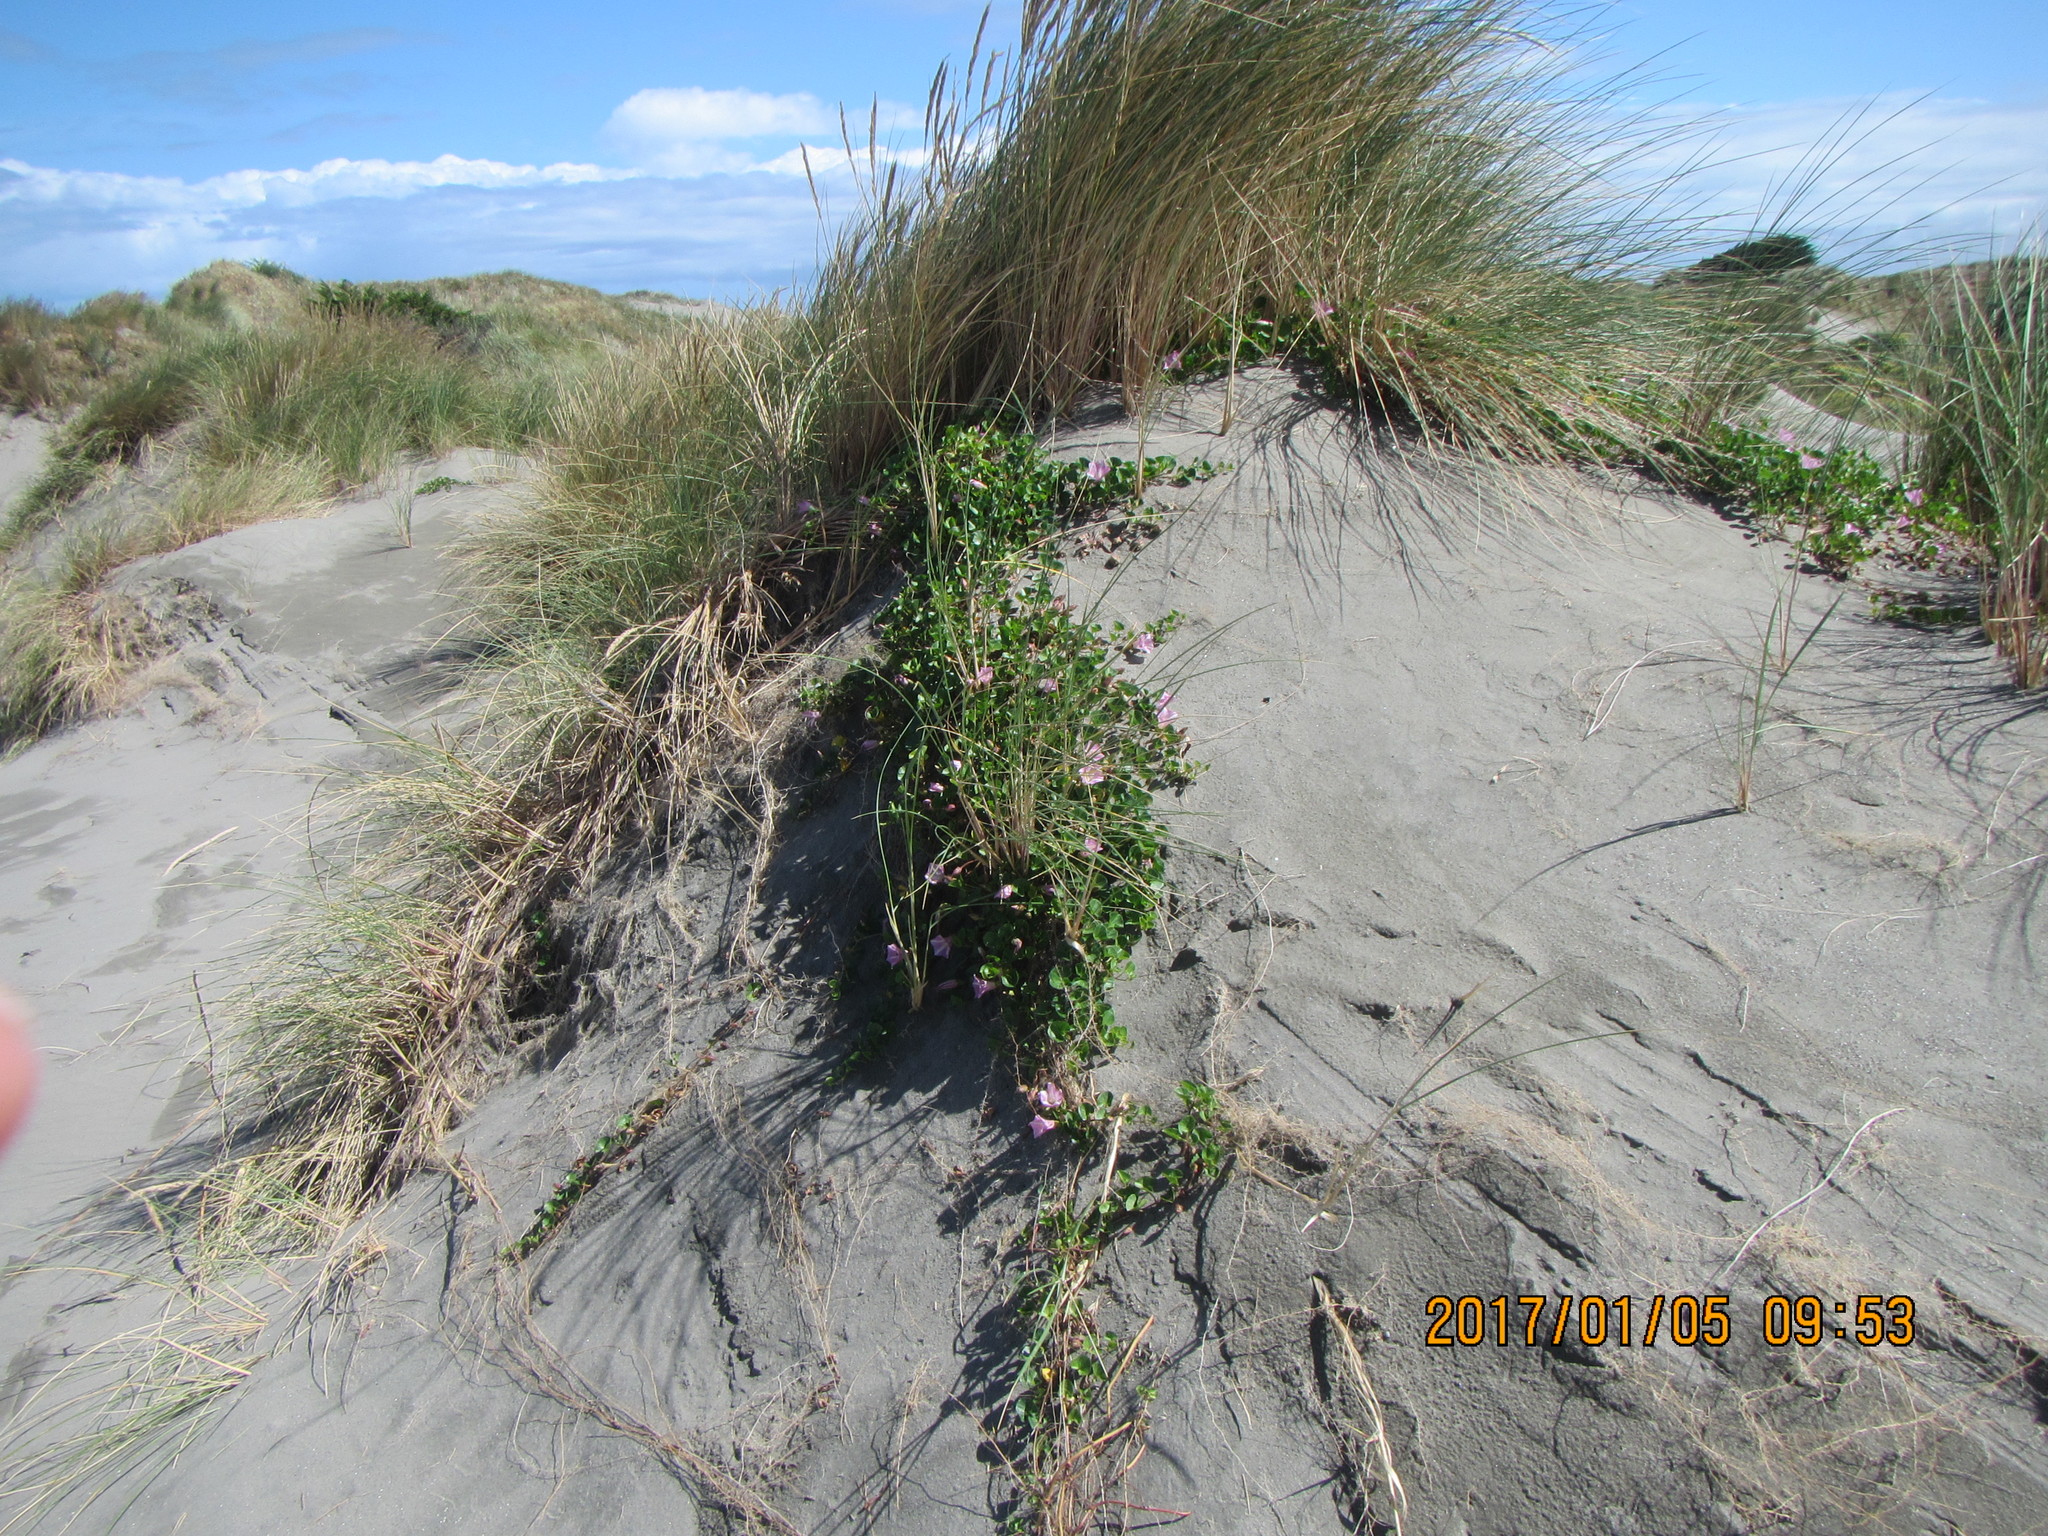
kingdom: Plantae
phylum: Tracheophyta
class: Magnoliopsida
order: Solanales
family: Convolvulaceae
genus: Calystegia
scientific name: Calystegia soldanella
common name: Sea bindweed
